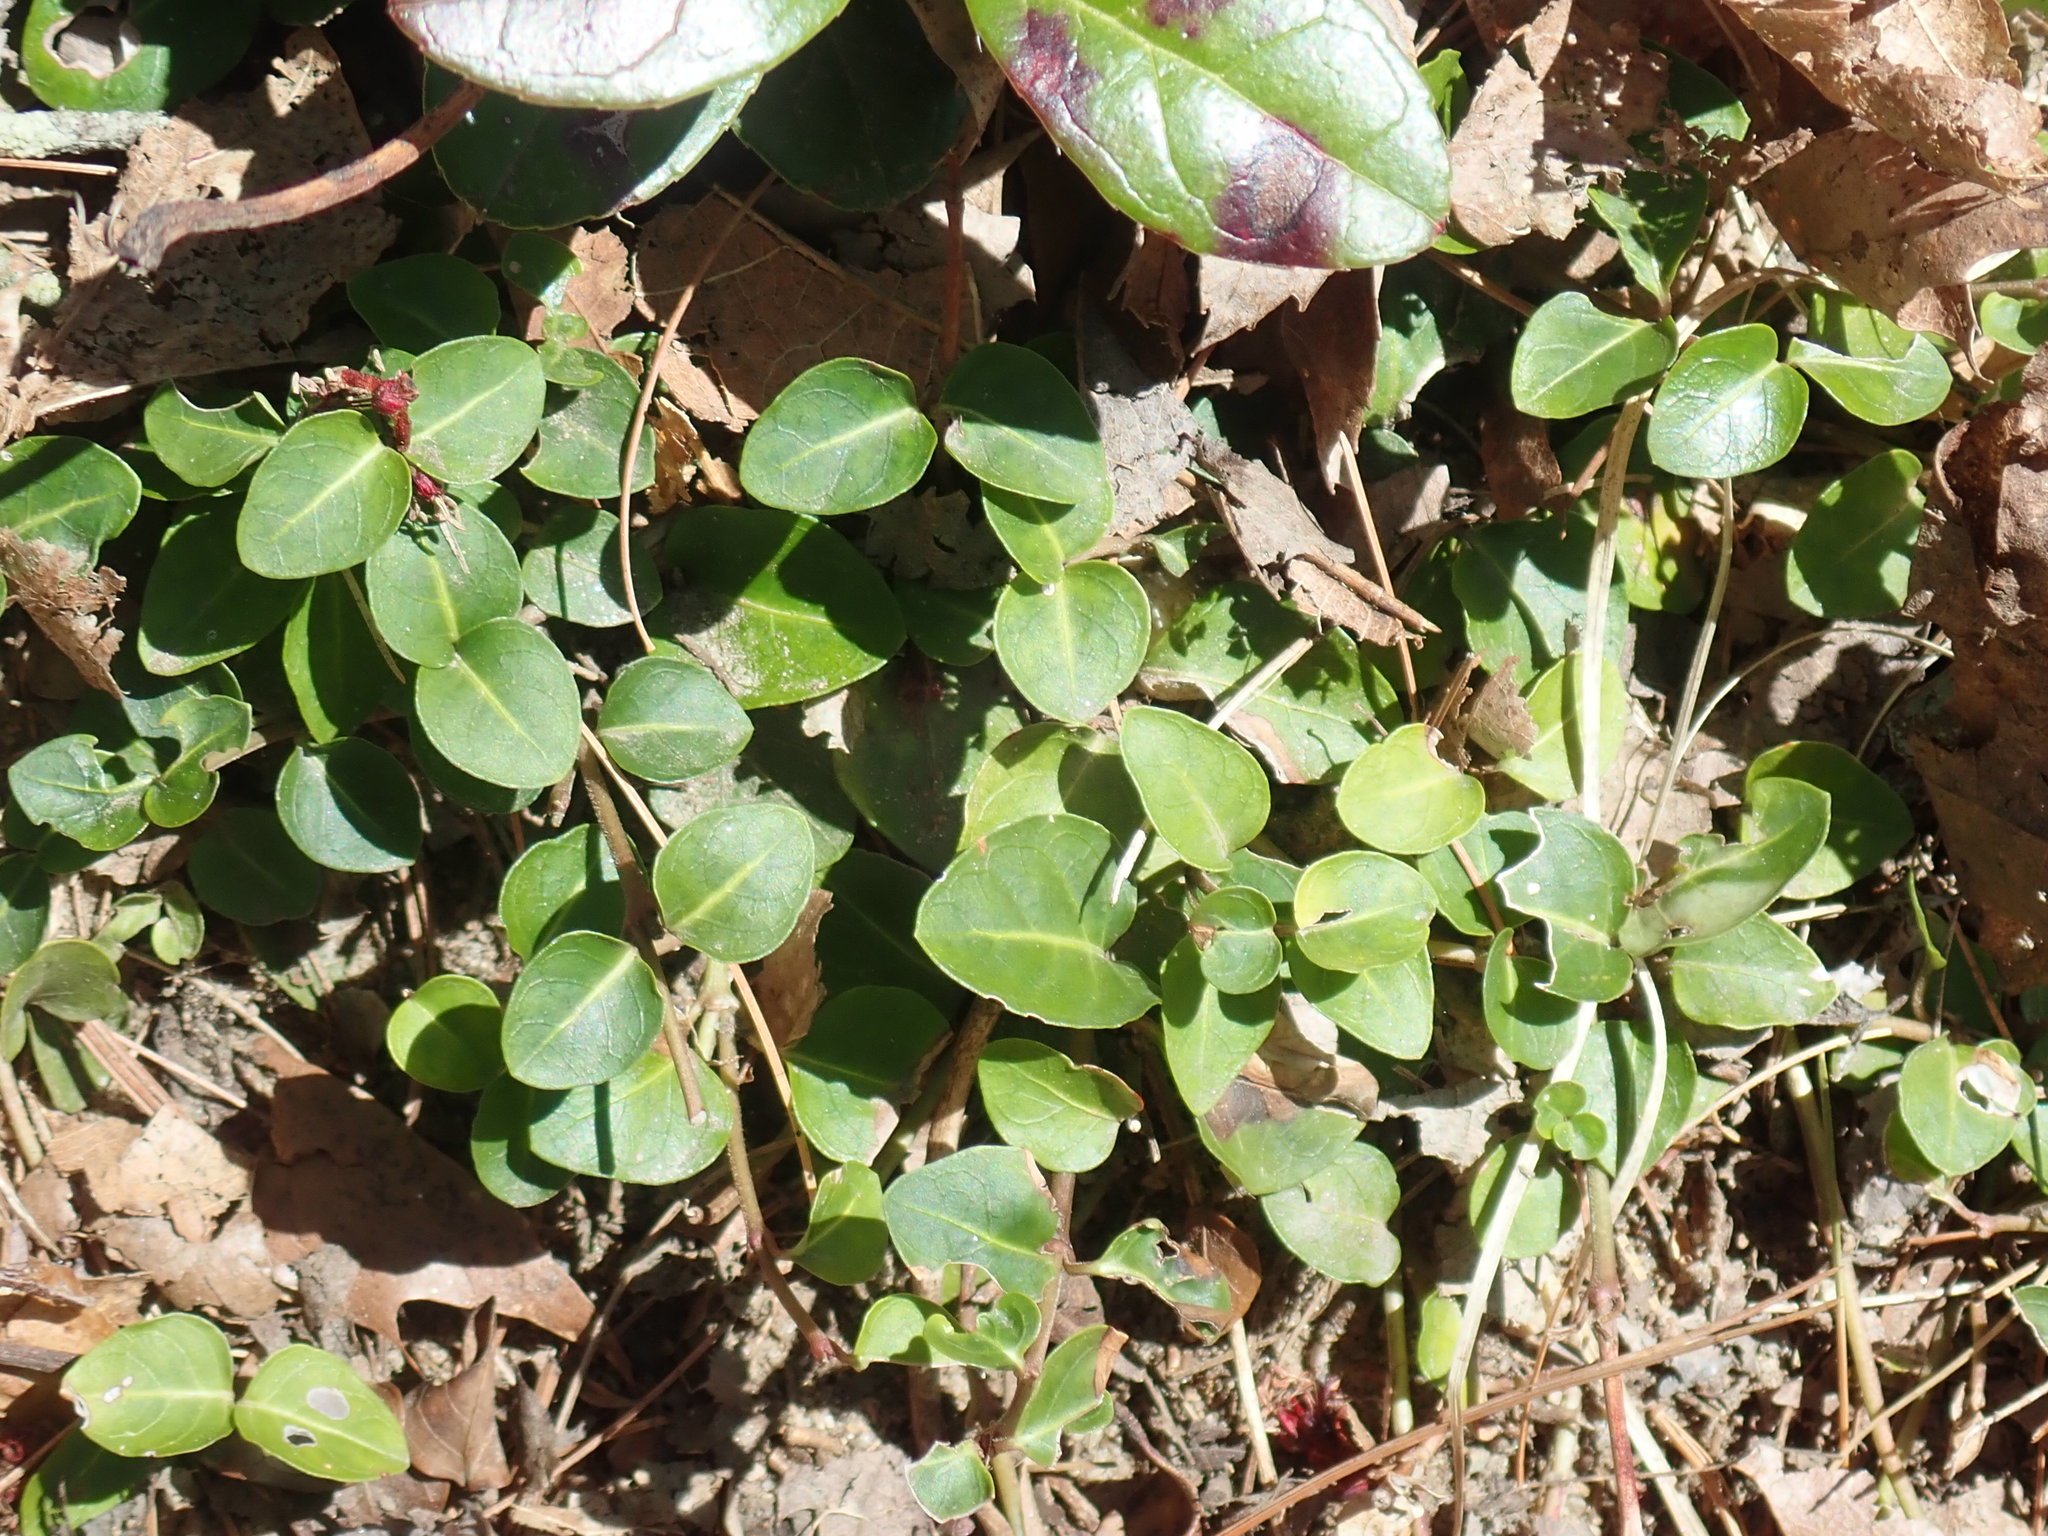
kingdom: Plantae
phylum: Tracheophyta
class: Magnoliopsida
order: Gentianales
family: Rubiaceae
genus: Mitchella
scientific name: Mitchella repens
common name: Partridge-berry
